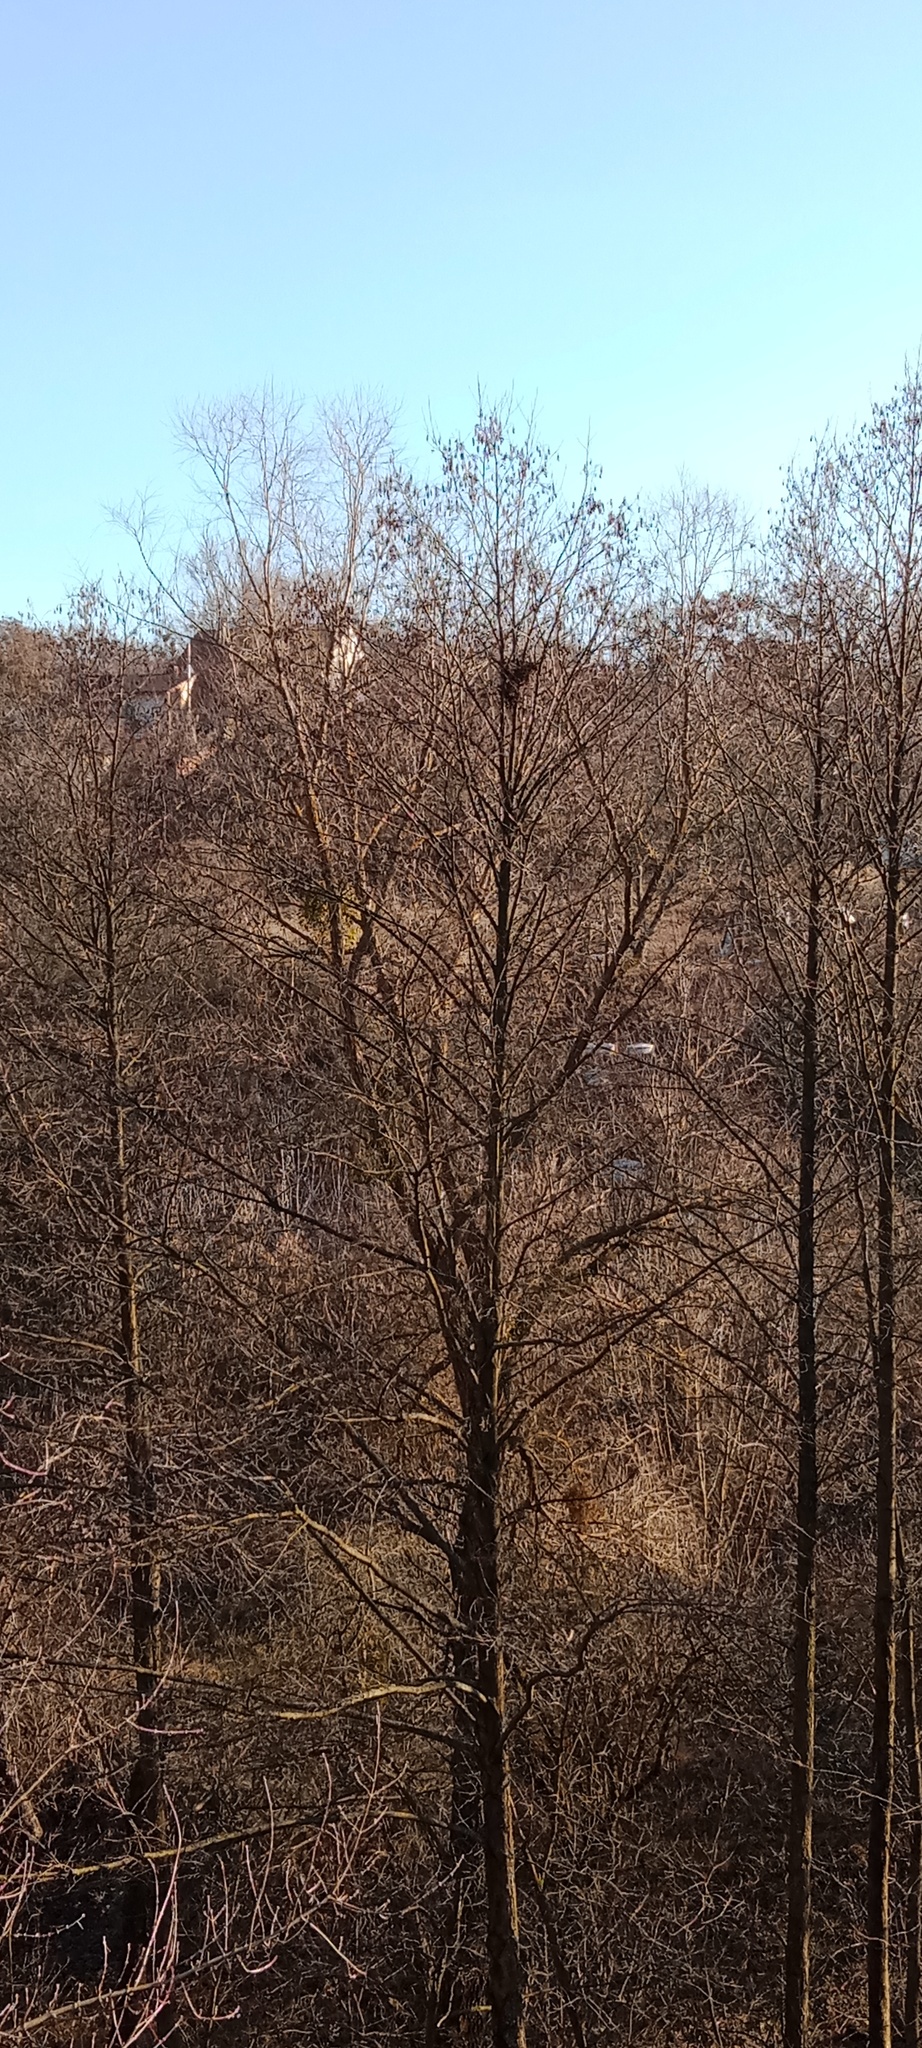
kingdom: Animalia
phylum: Chordata
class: Aves
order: Passeriformes
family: Corvidae
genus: Pica
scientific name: Pica pica
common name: Eurasian magpie
